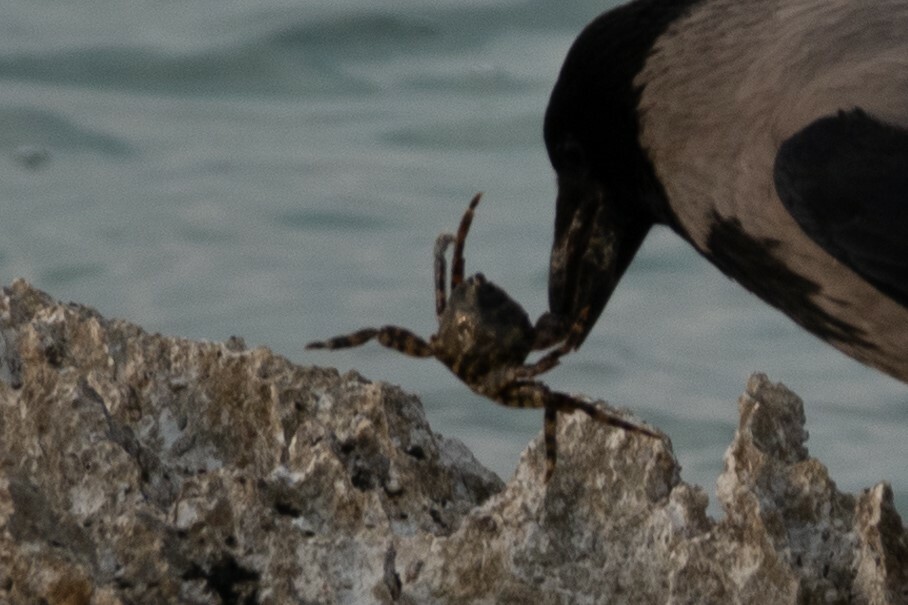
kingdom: Animalia
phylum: Arthropoda
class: Malacostraca
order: Decapoda
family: Grapsidae
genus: Pachygrapsus
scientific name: Pachygrapsus marmoratus
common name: Marbled rock crab
